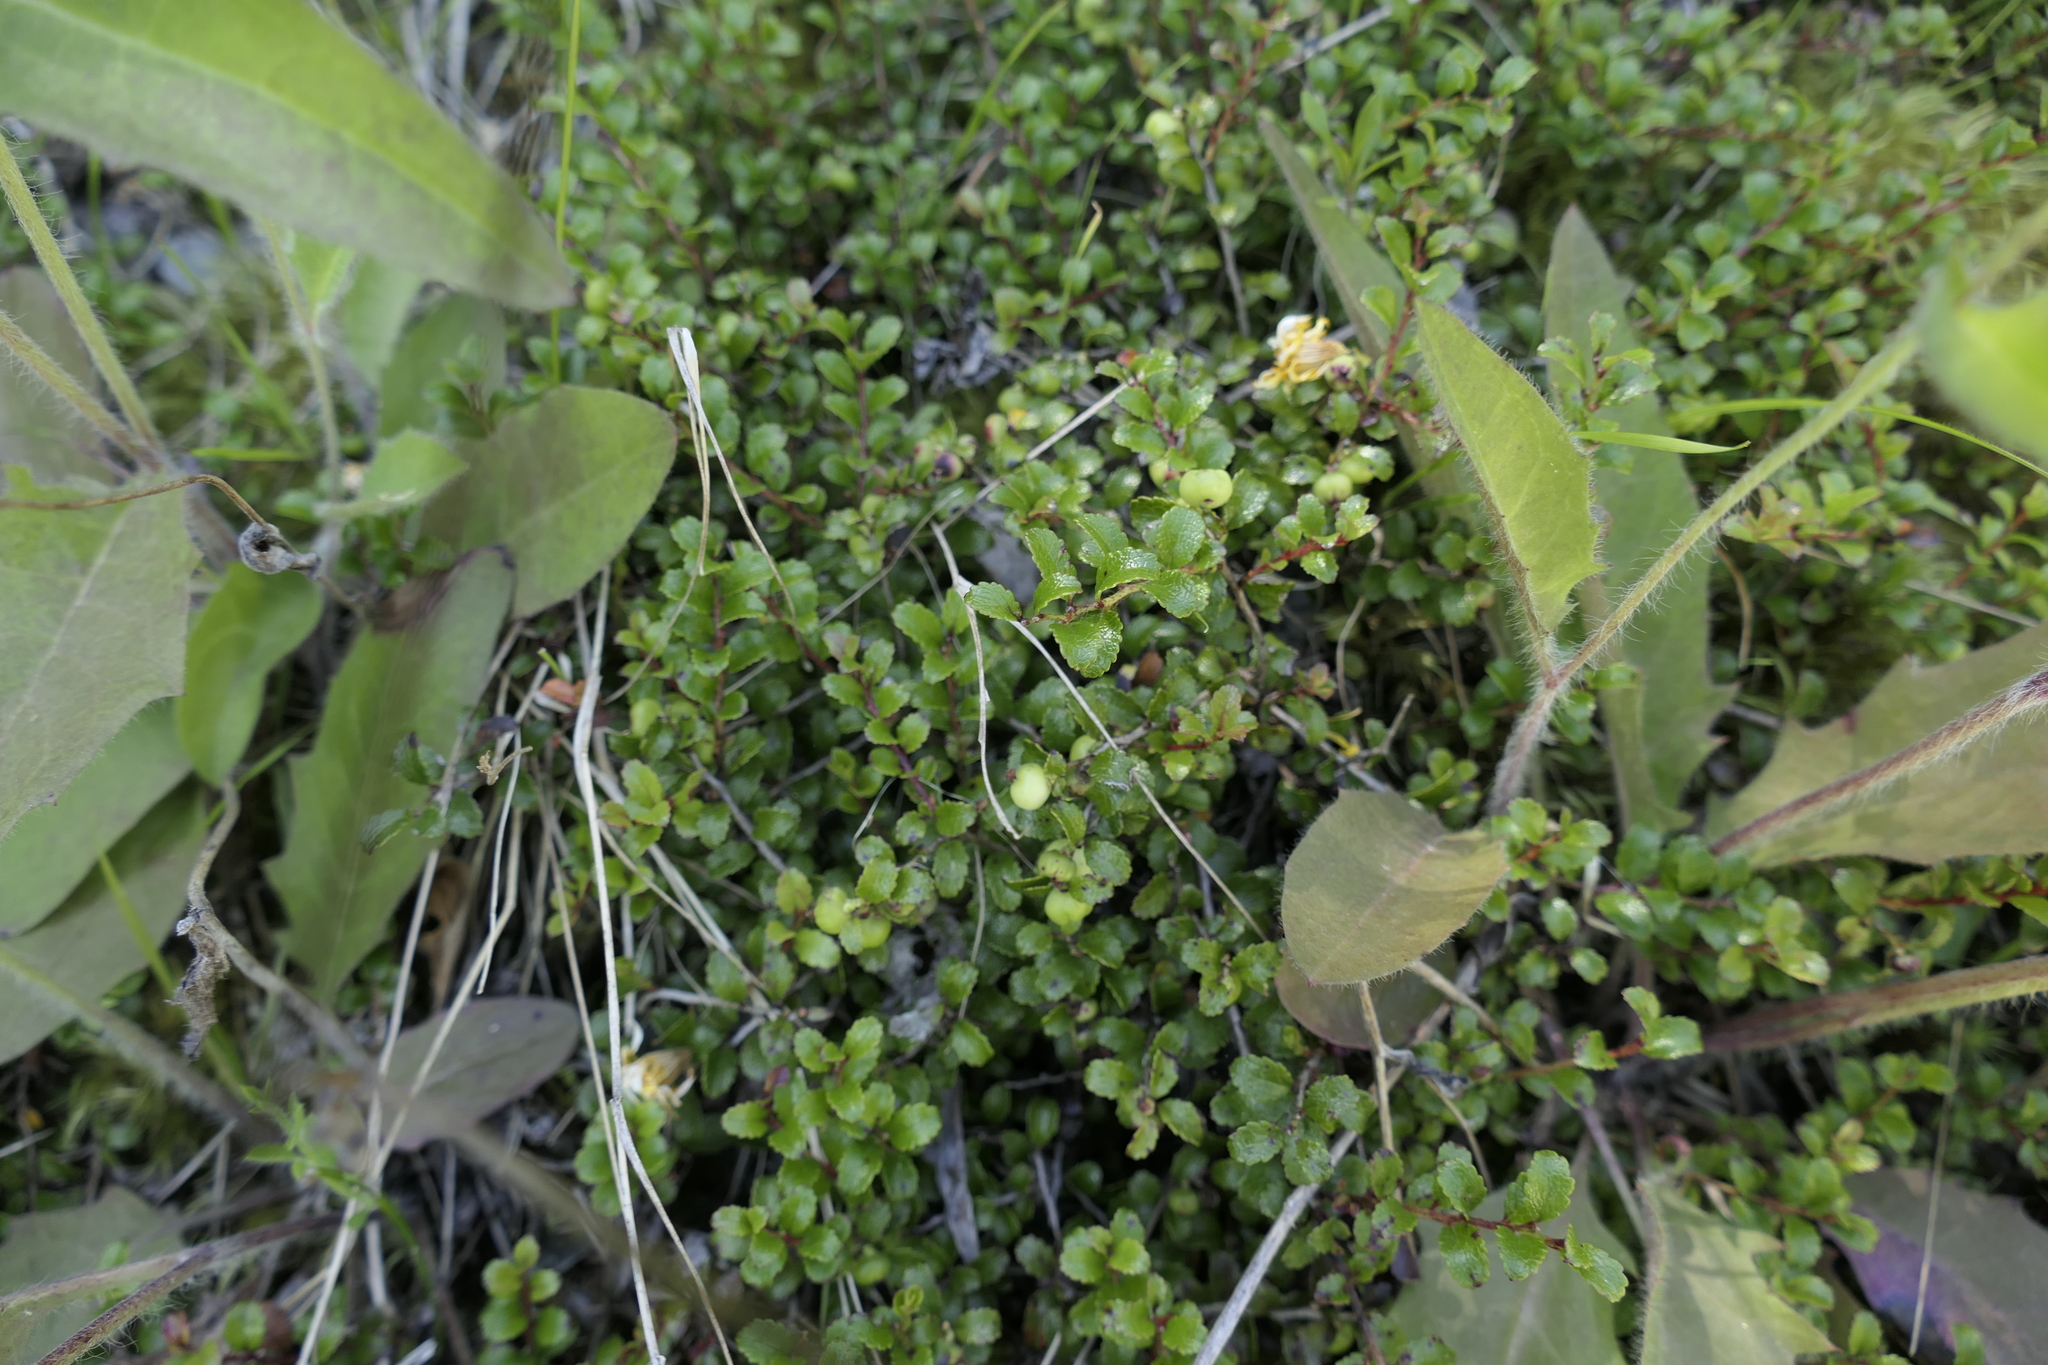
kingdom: Plantae
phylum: Tracheophyta
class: Magnoliopsida
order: Ericales
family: Ericaceae
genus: Gaultheria
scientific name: Gaultheria depressa
